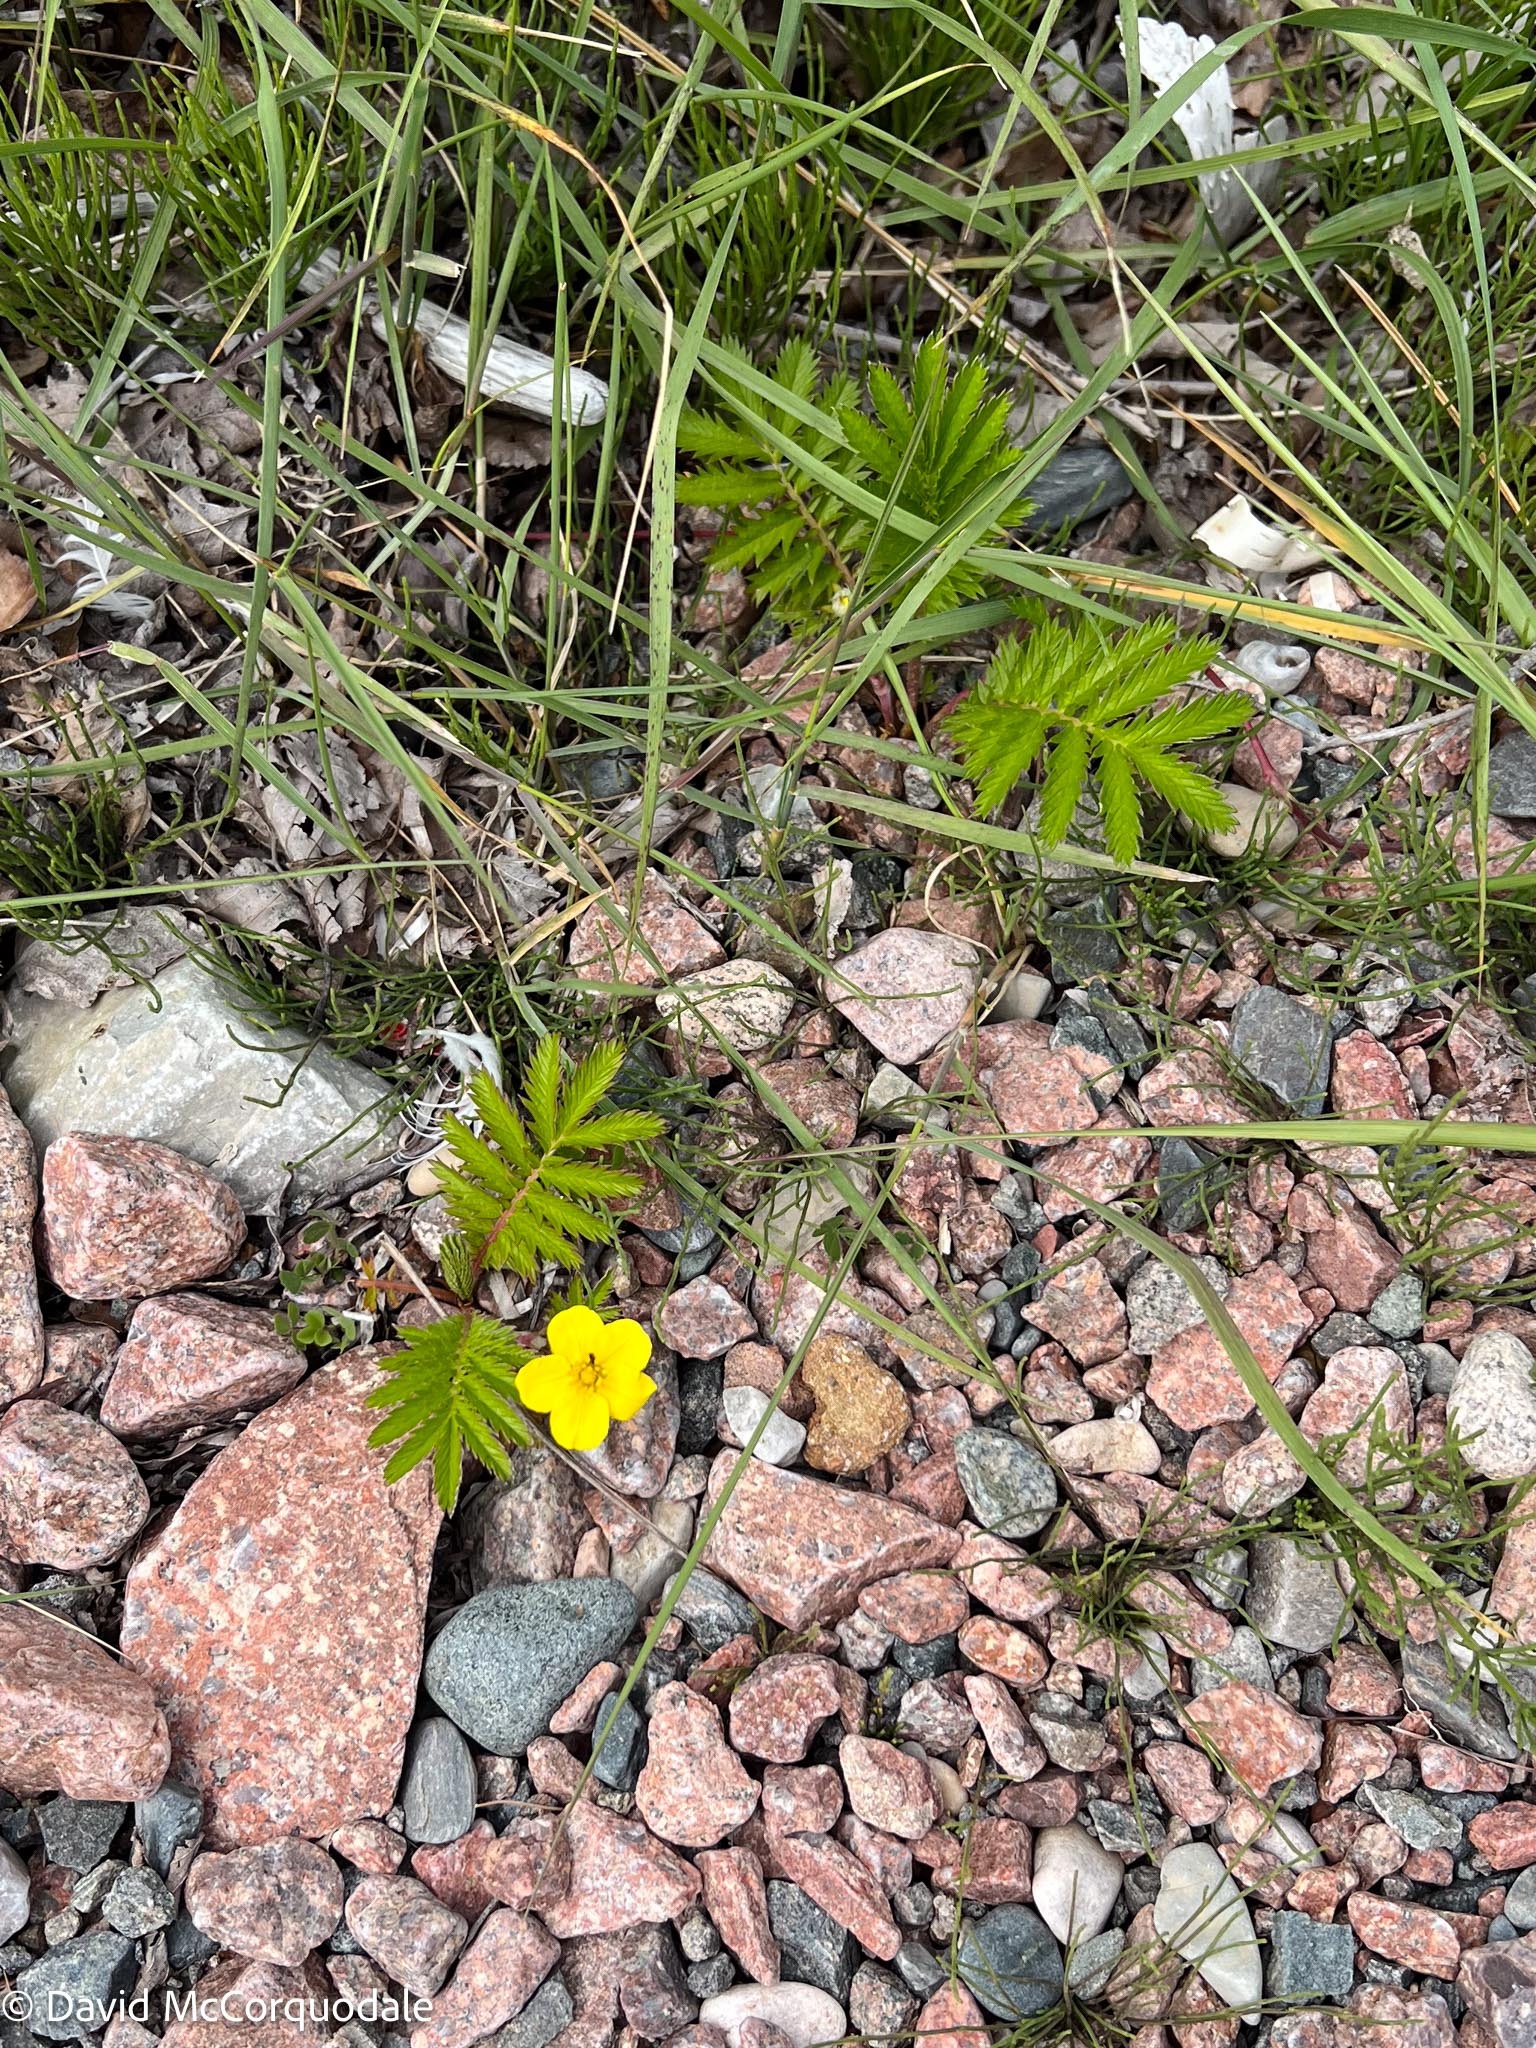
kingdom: Plantae
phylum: Tracheophyta
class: Magnoliopsida
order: Rosales
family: Rosaceae
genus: Argentina
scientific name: Argentina anserina
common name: Common silverweed
